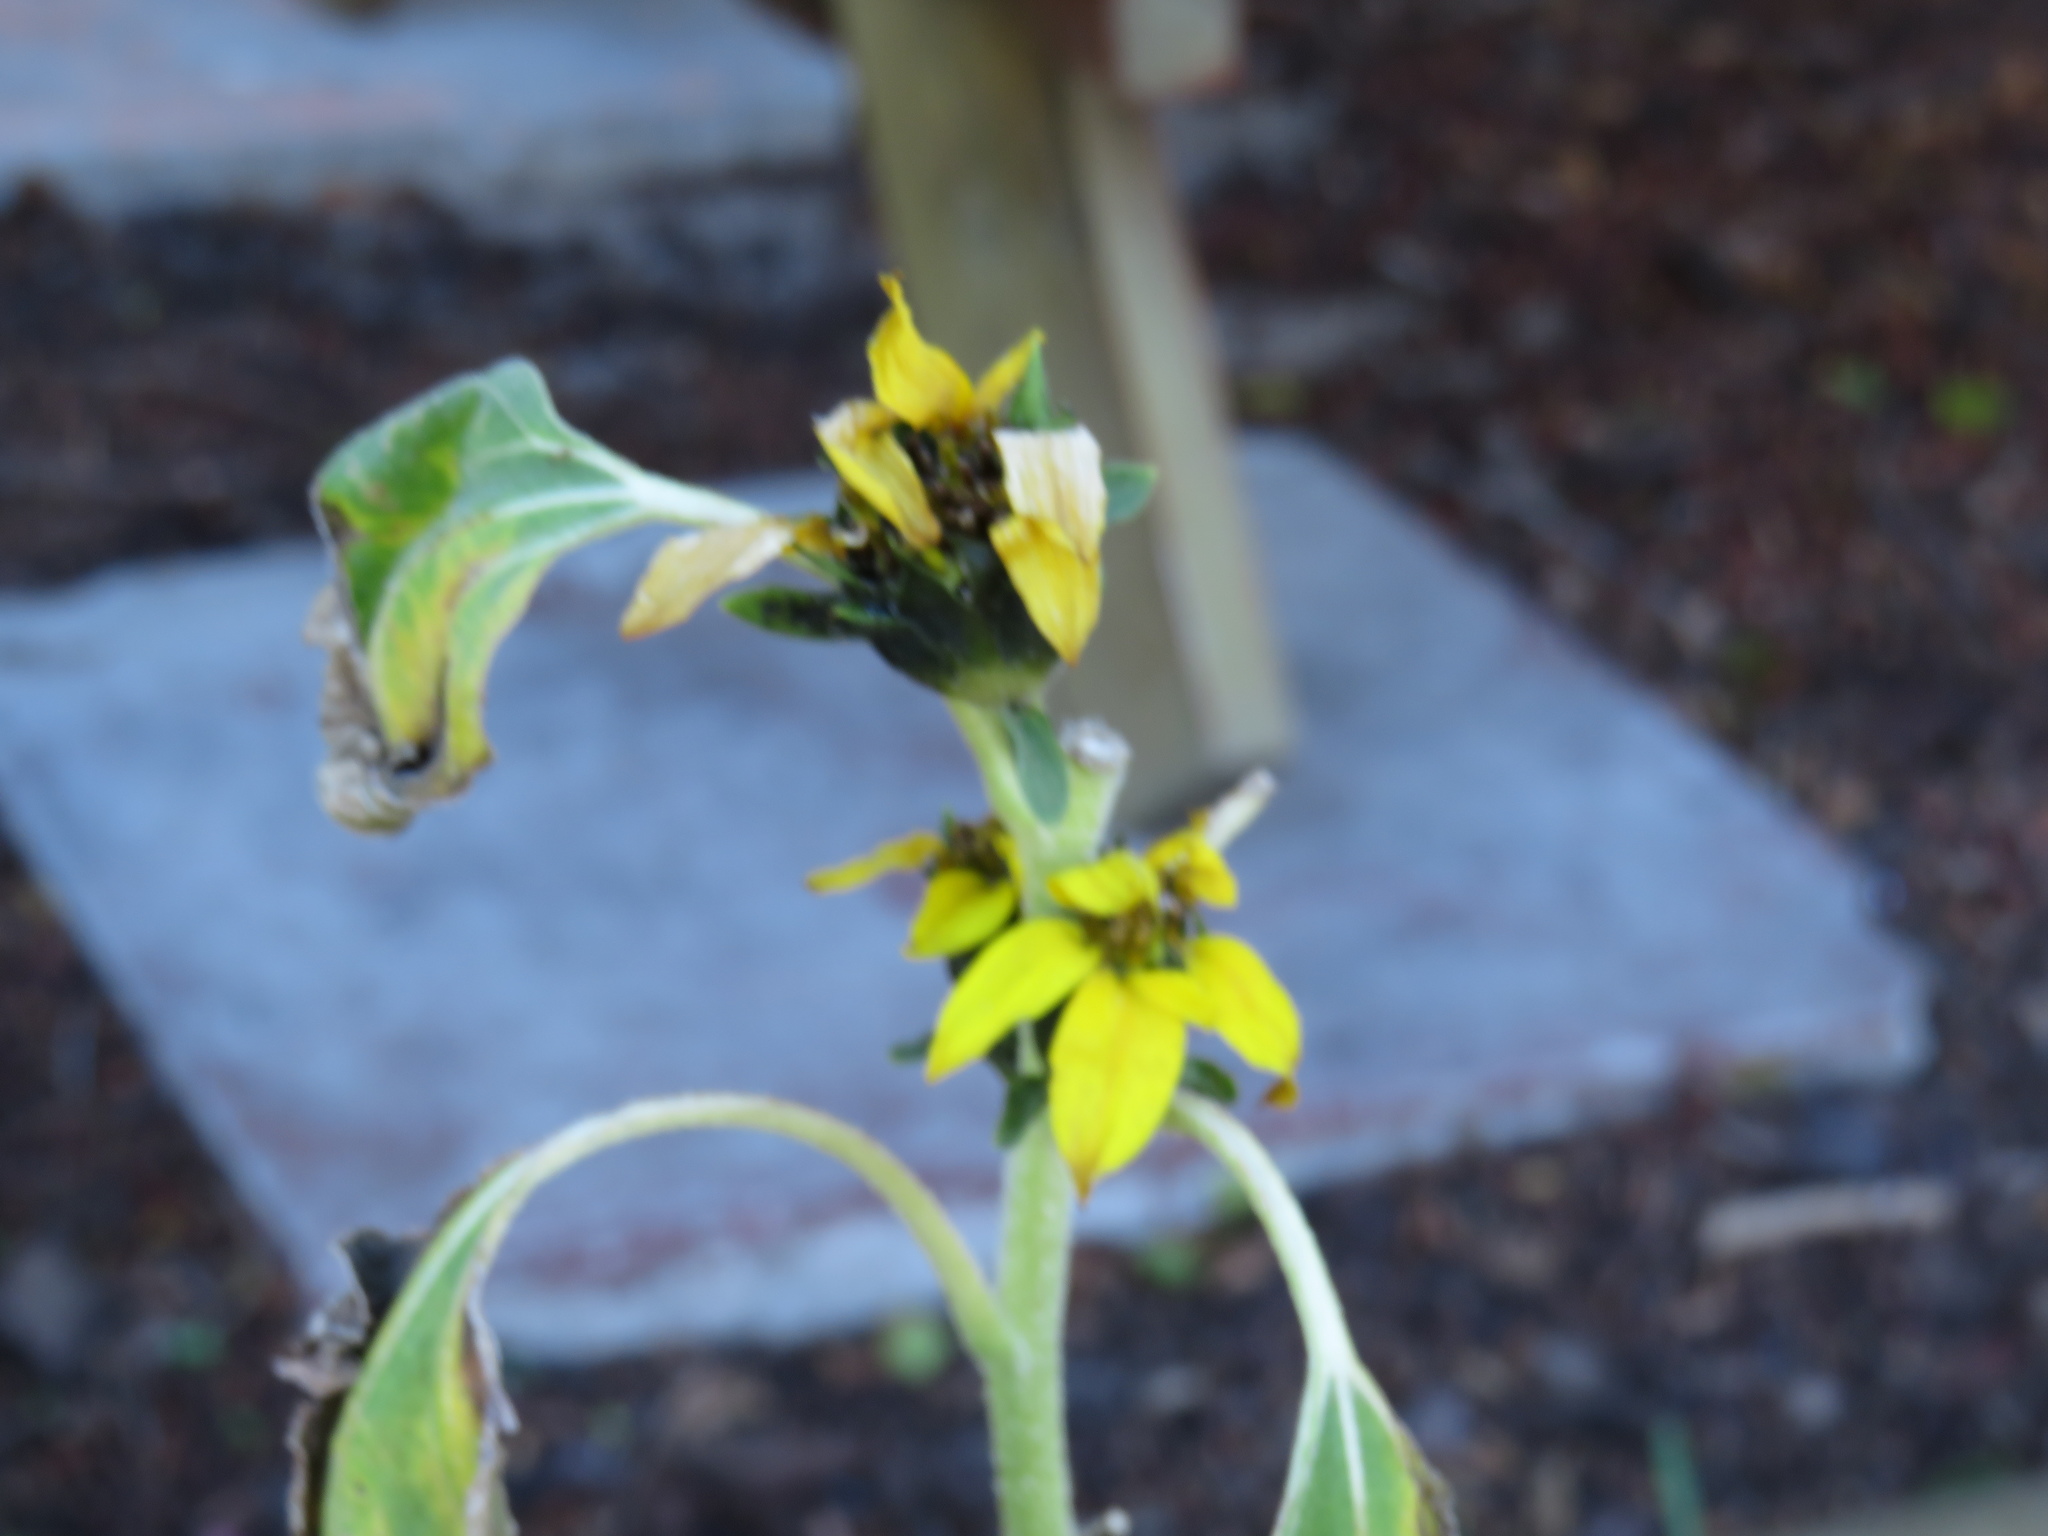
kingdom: Plantae
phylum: Tracheophyta
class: Magnoliopsida
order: Asterales
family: Asteraceae
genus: Helianthus
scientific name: Helianthus annuus
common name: Sunflower
